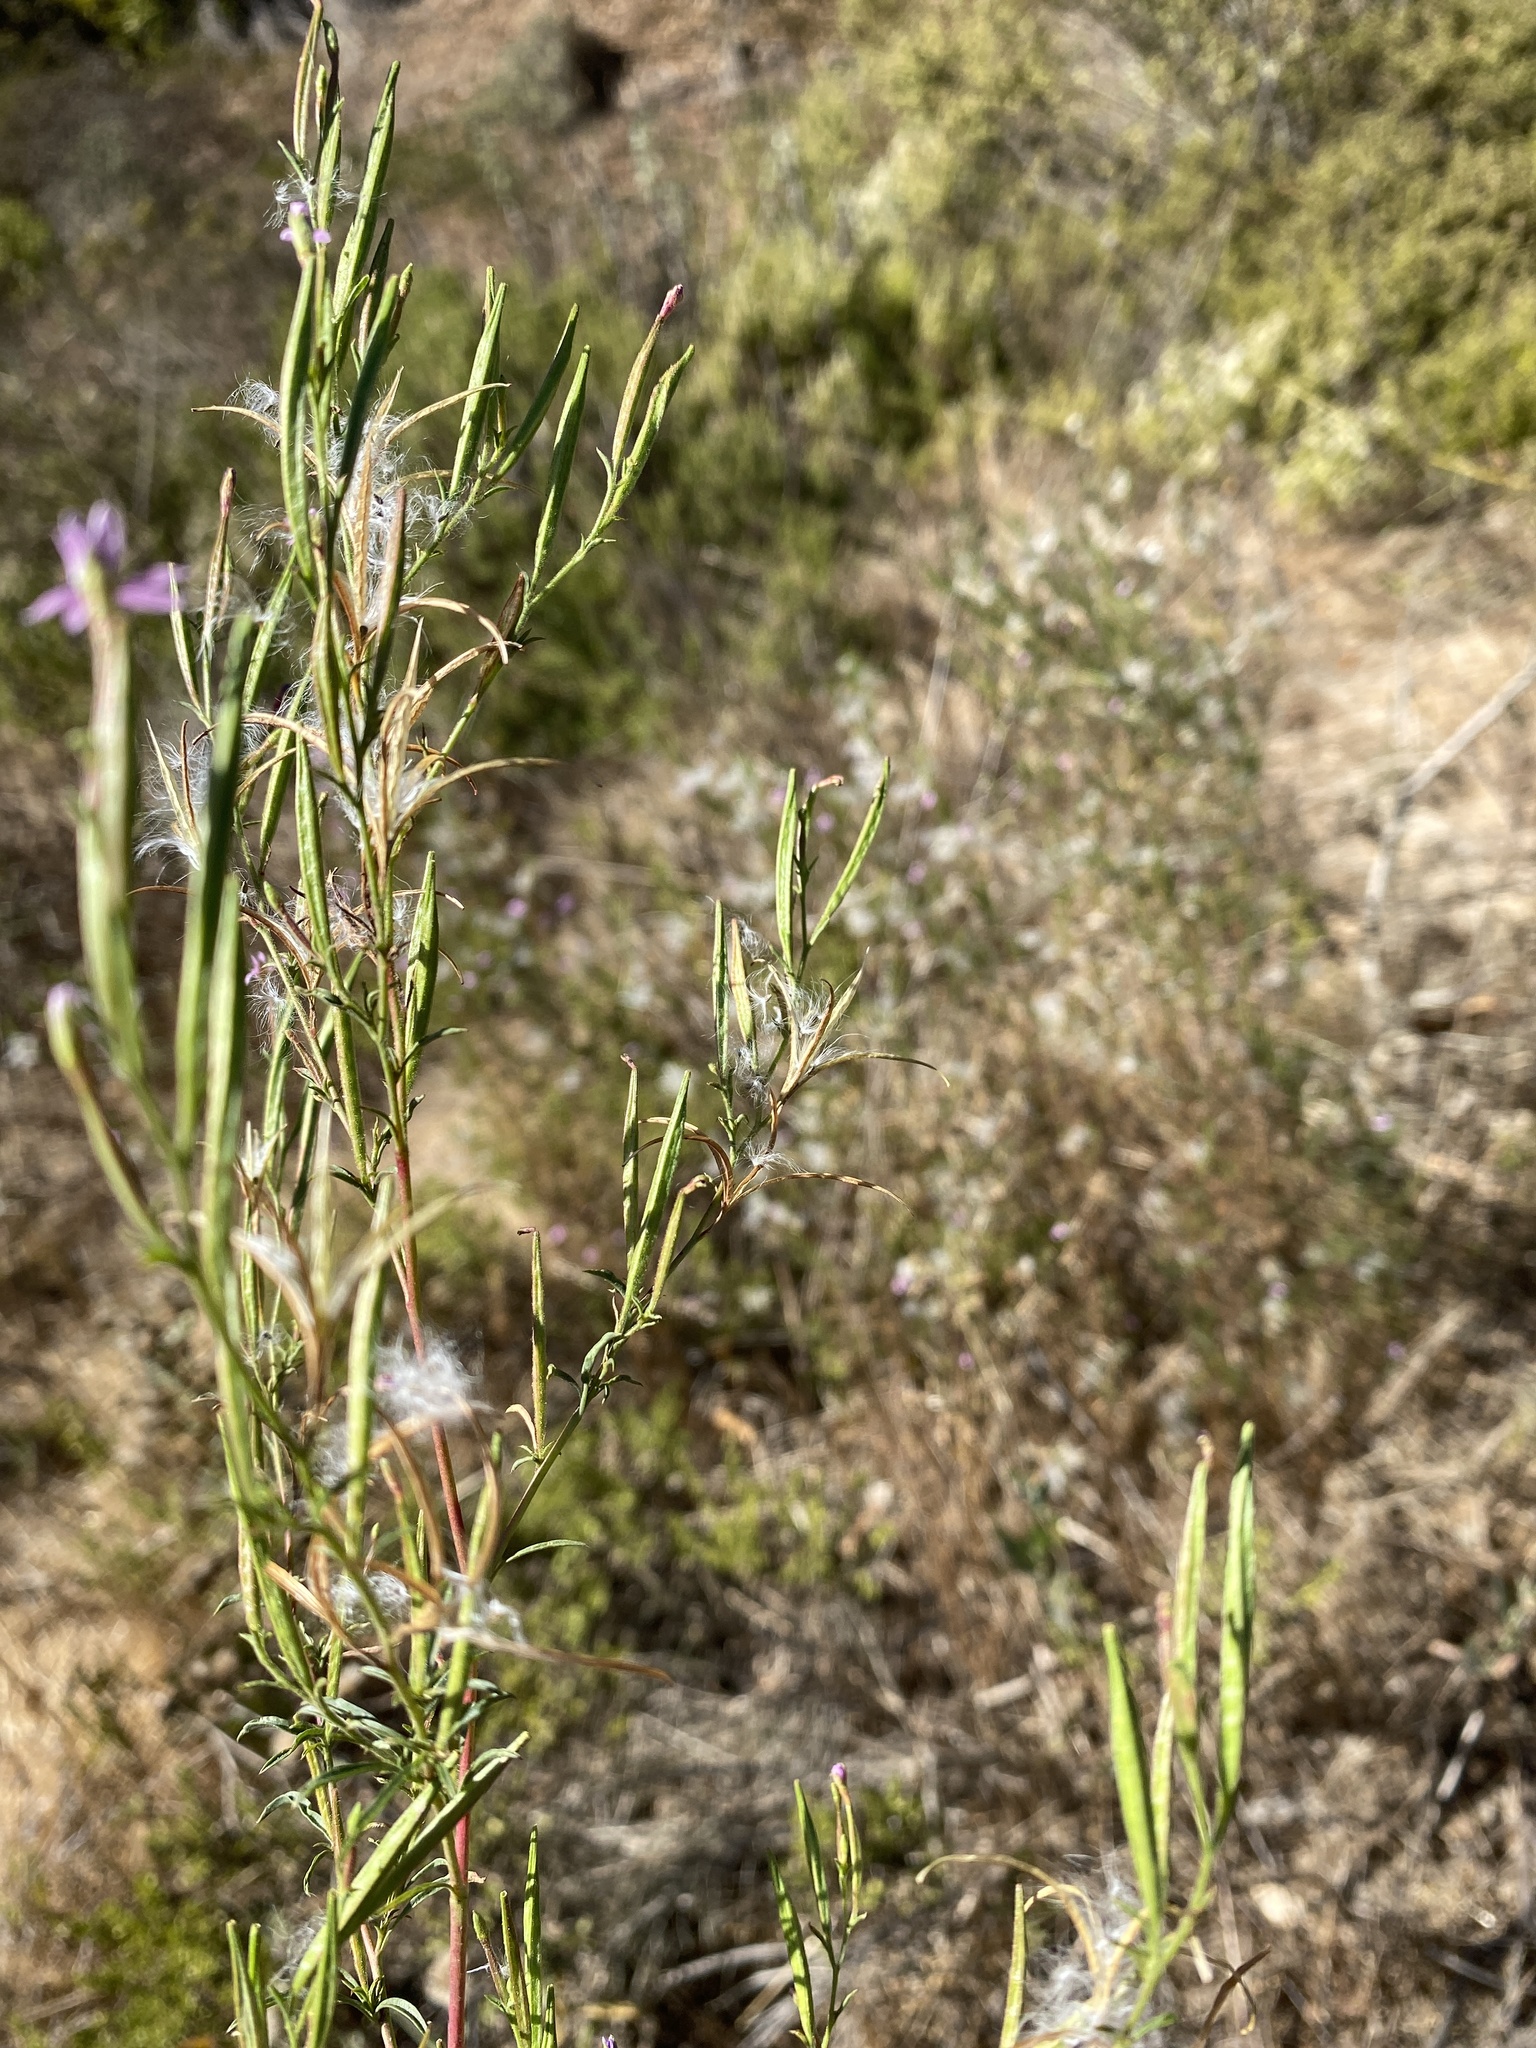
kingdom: Plantae
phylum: Tracheophyta
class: Magnoliopsida
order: Myrtales
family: Onagraceae
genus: Epilobium
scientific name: Epilobium brachycarpum
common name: Annual willowherb
